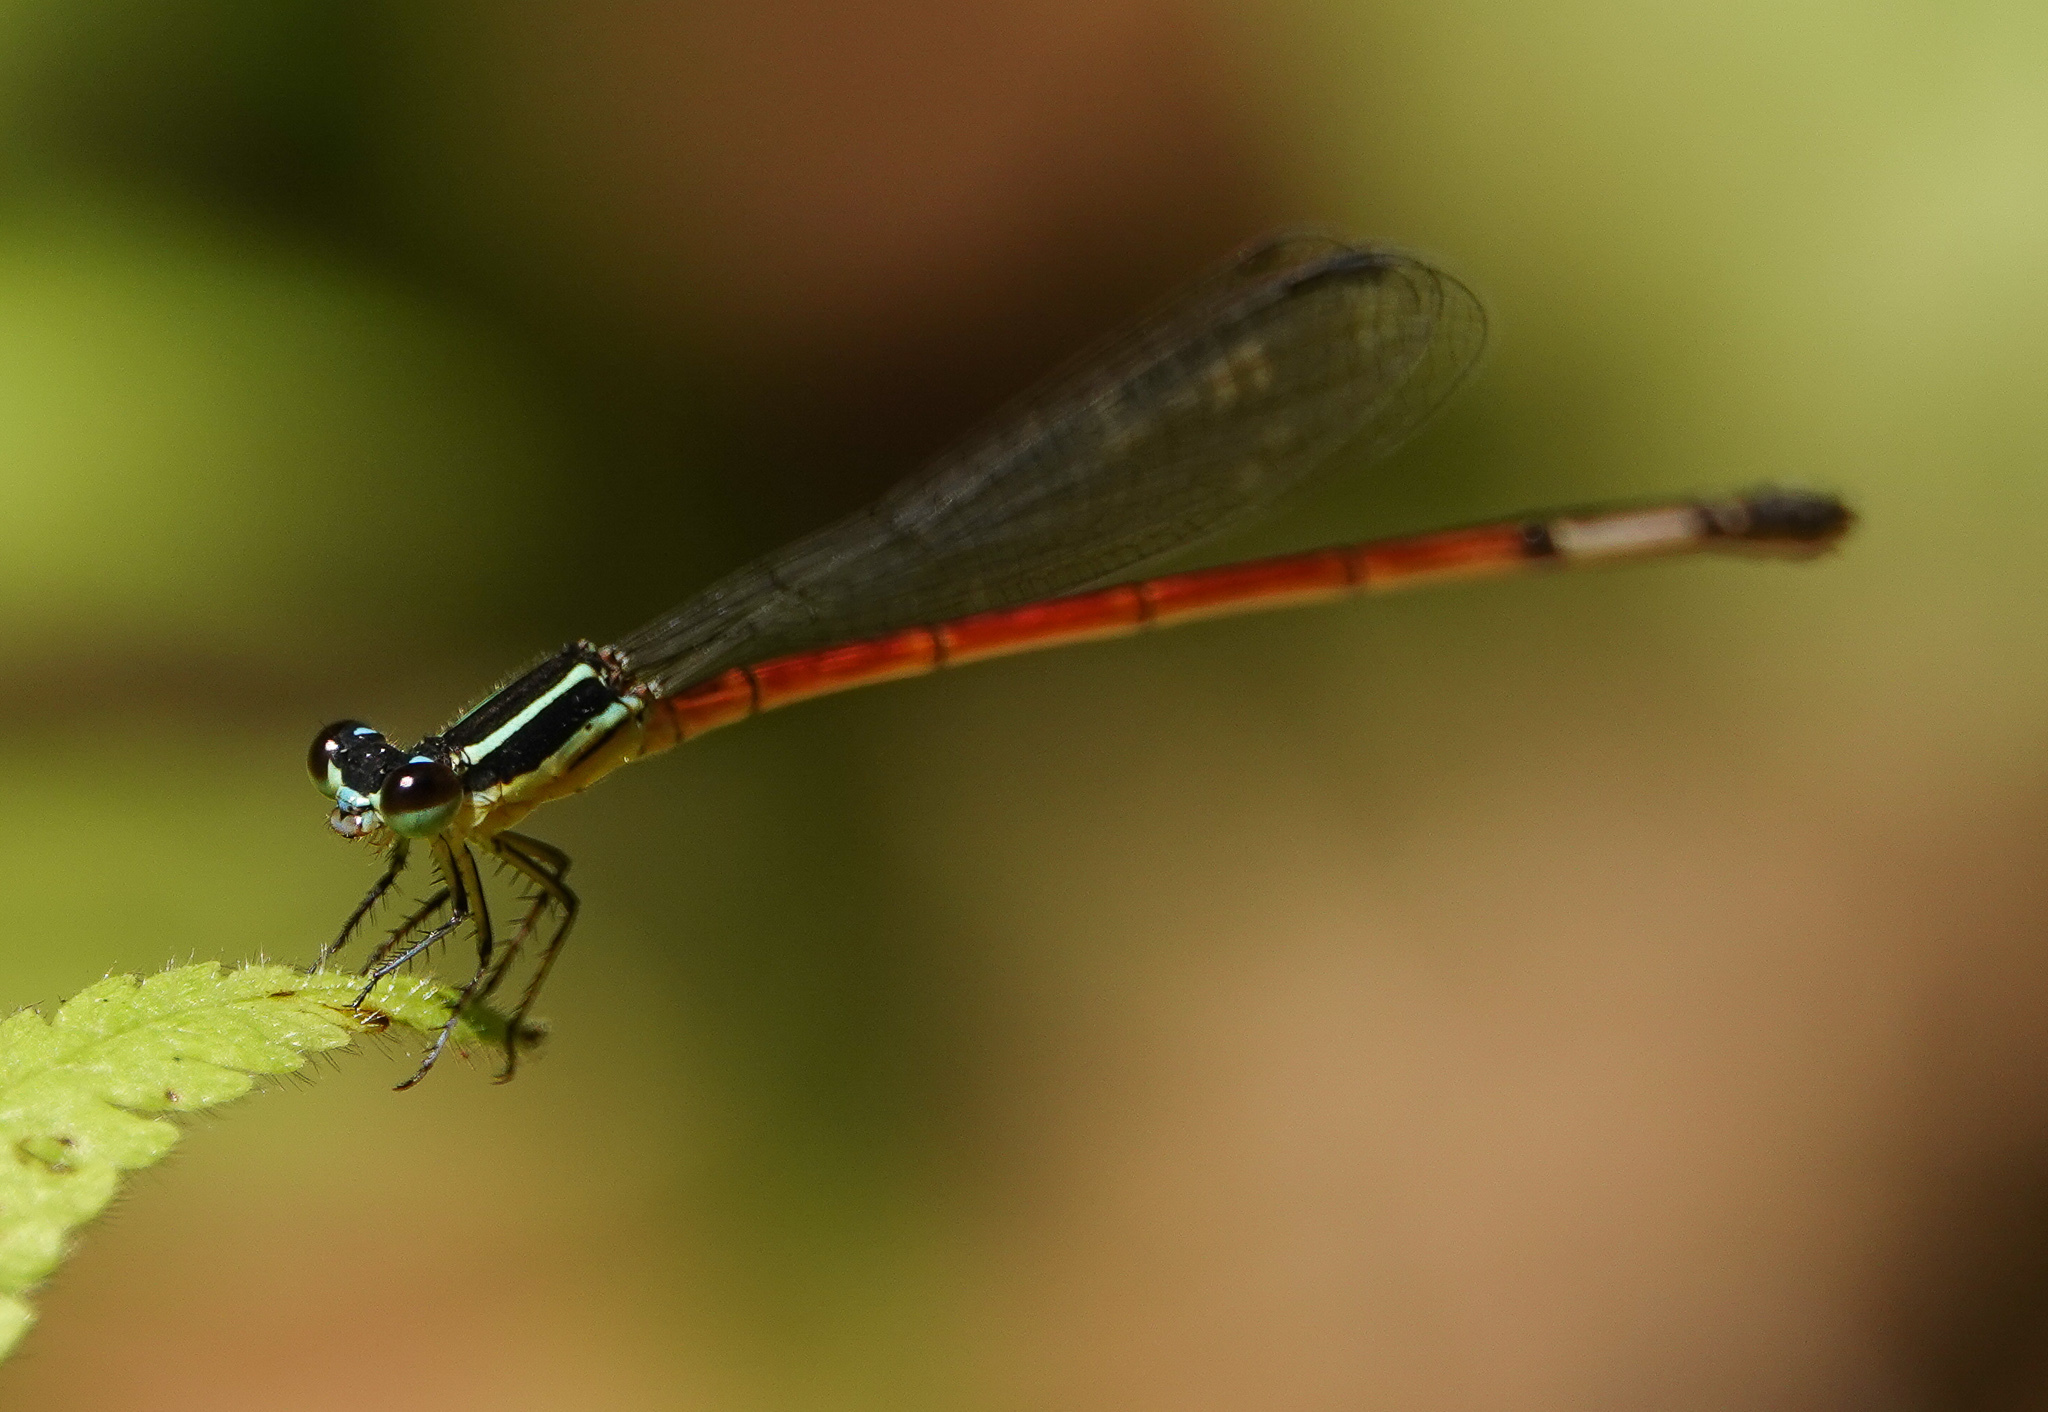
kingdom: Animalia
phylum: Arthropoda
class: Insecta
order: Odonata
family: Coenagrionidae
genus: Mortonagrion
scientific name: Mortonagrion aborense
